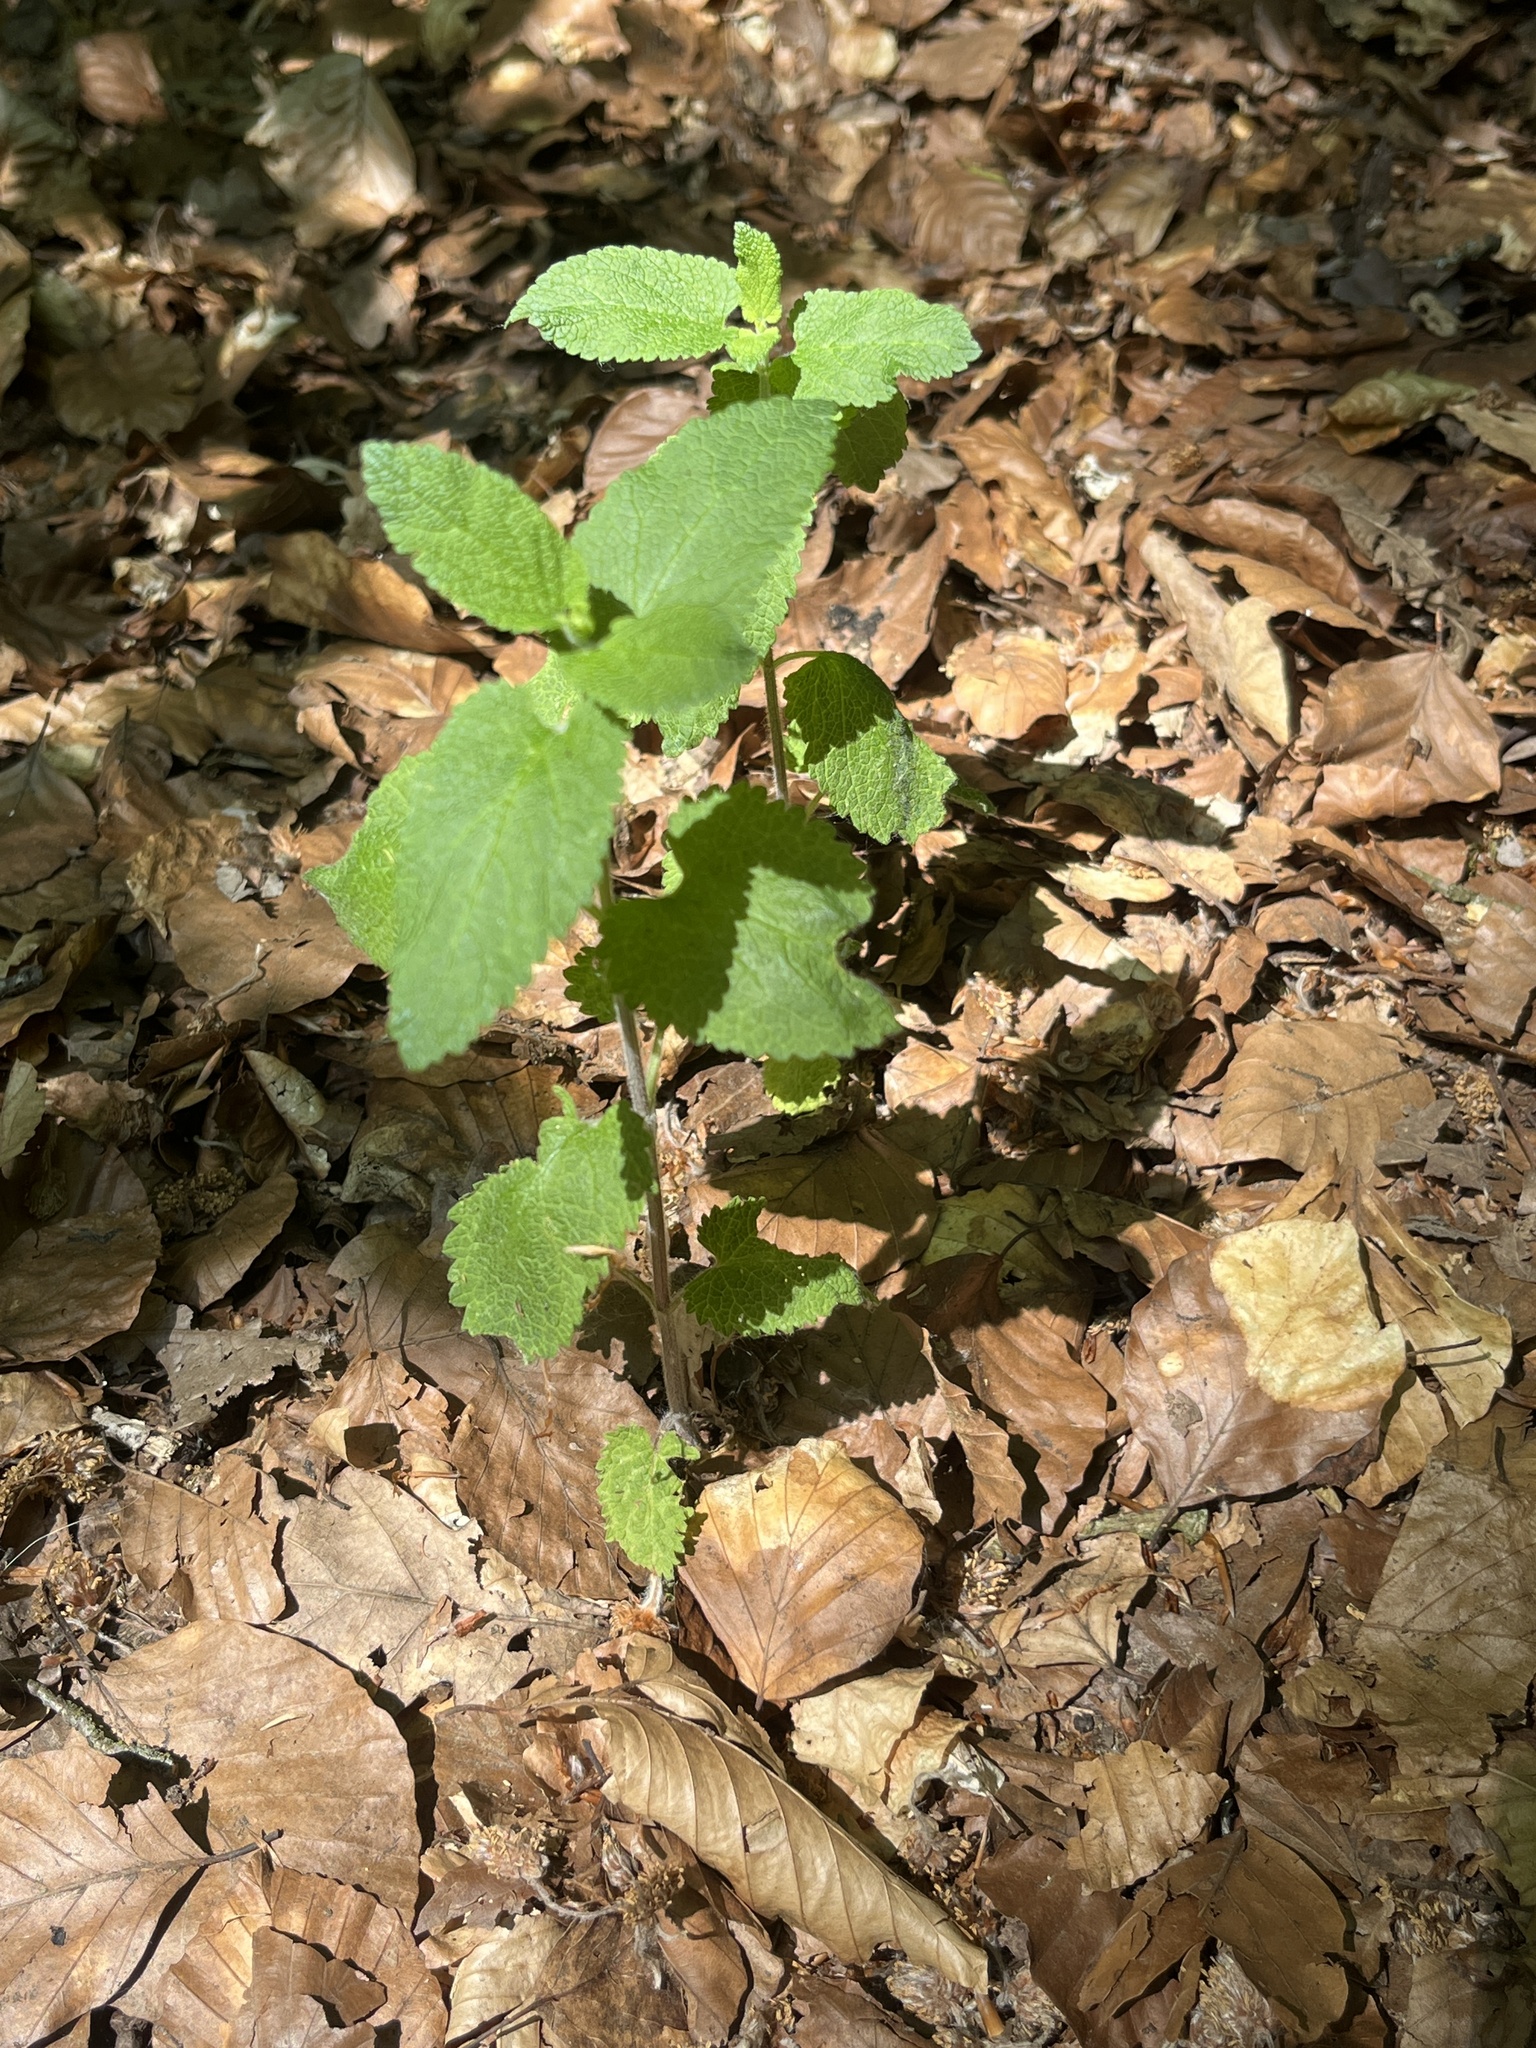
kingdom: Plantae
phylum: Tracheophyta
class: Magnoliopsida
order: Lamiales
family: Lamiaceae
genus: Teucrium
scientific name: Teucrium scorodonia
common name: Woodland germander
